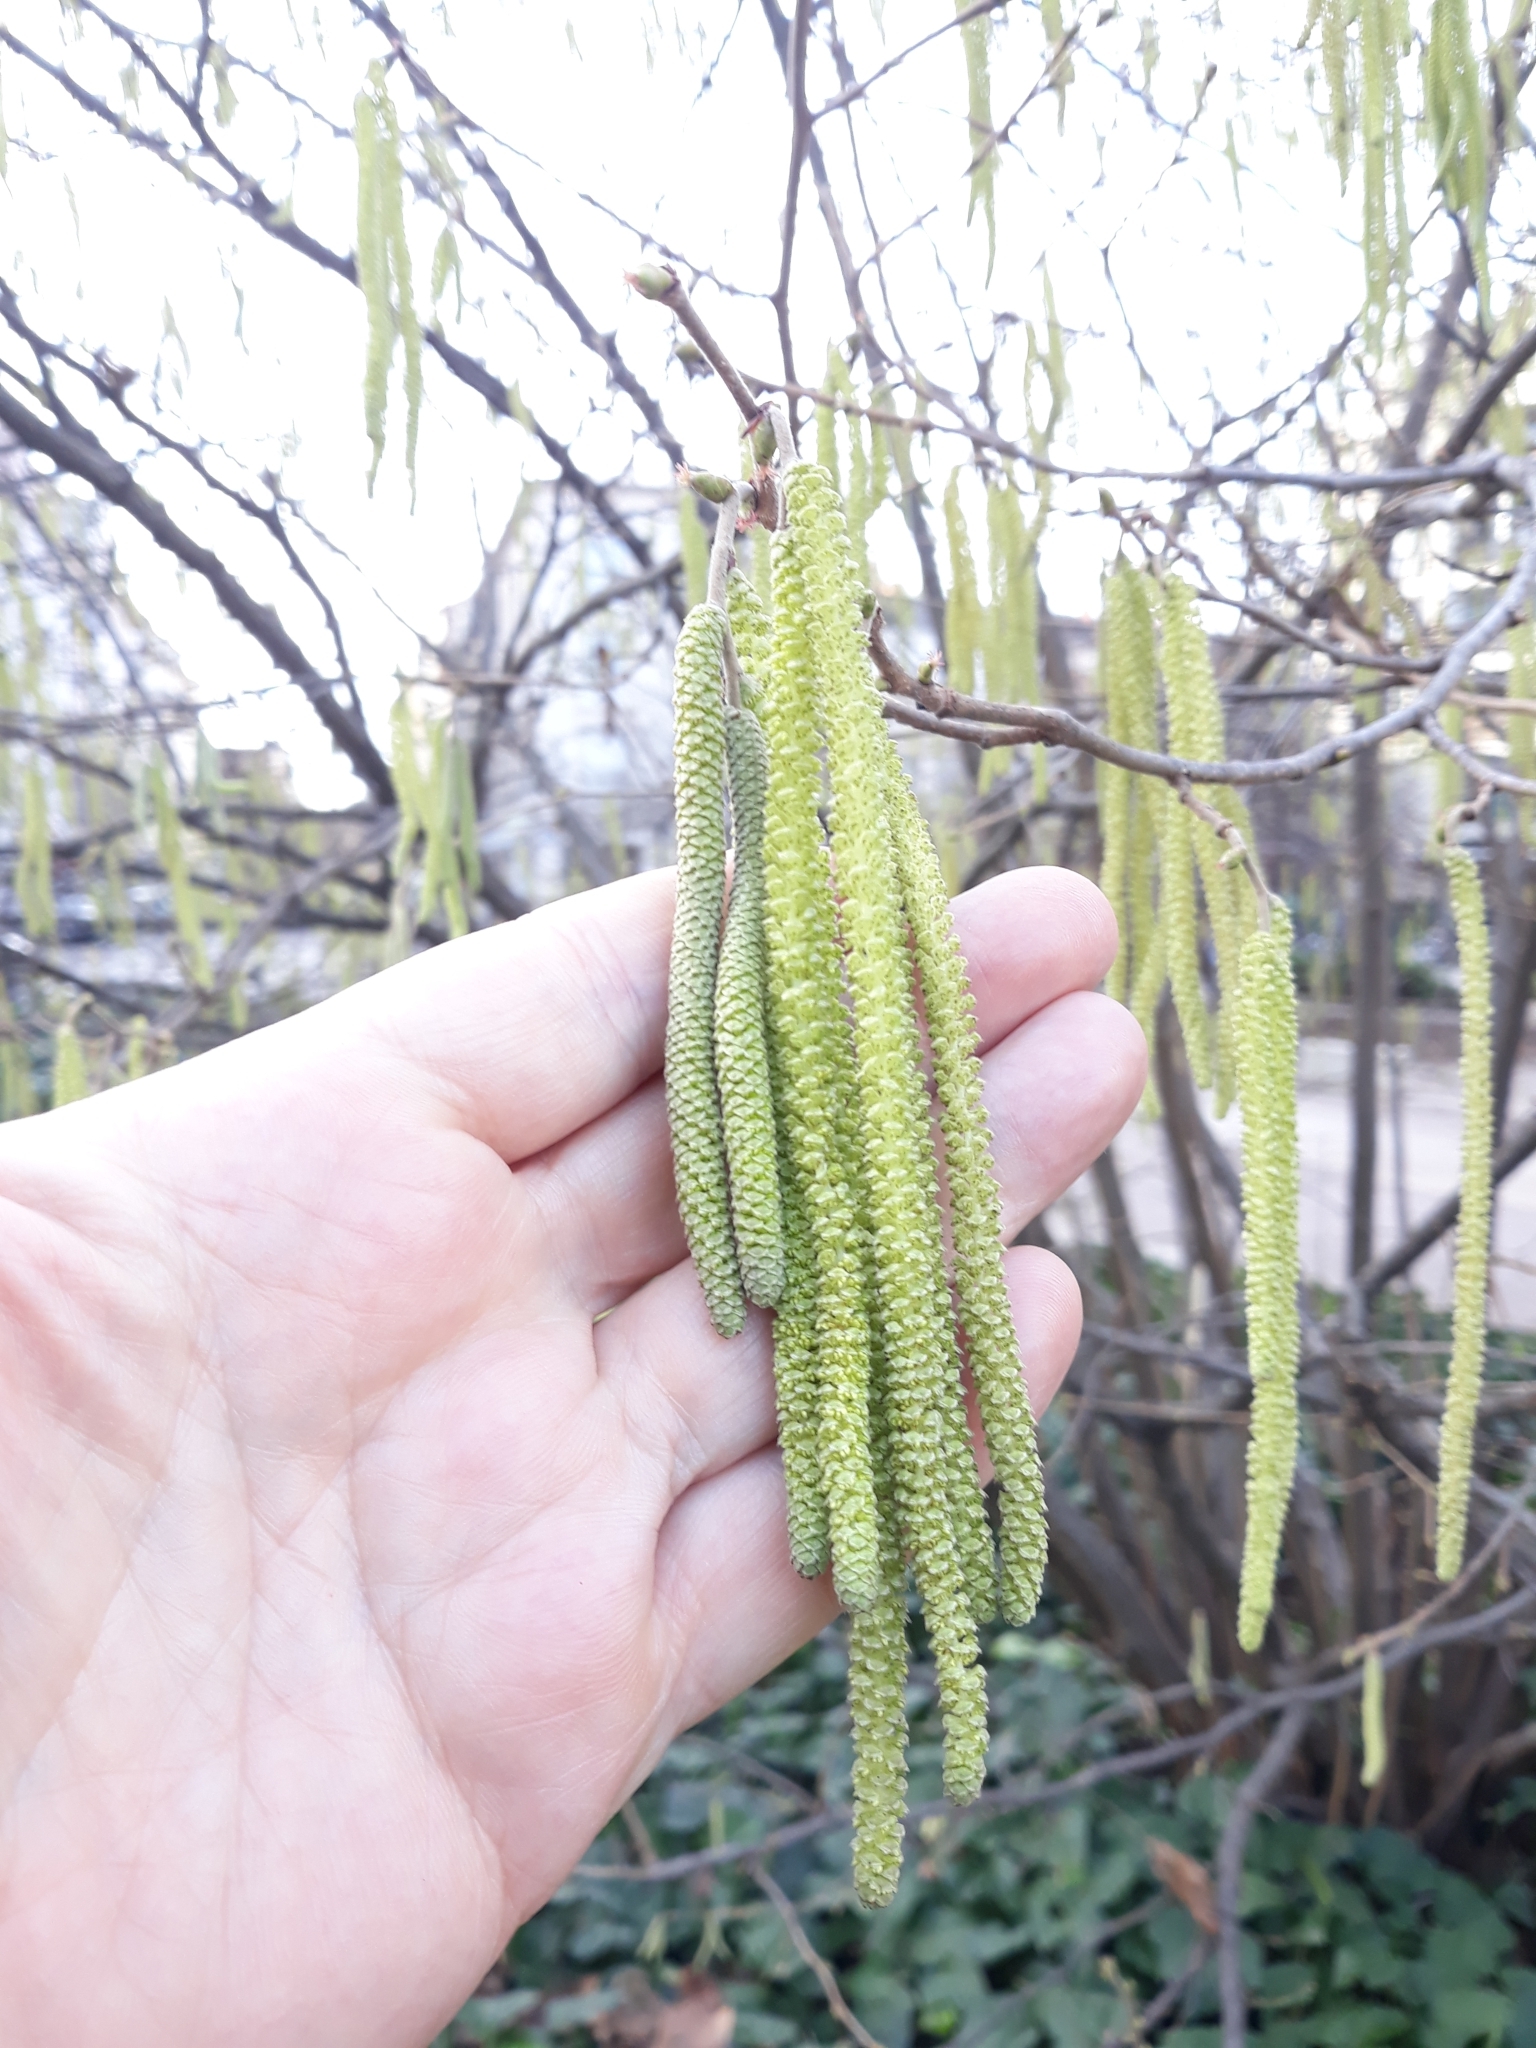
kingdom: Plantae
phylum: Tracheophyta
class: Magnoliopsida
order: Fagales
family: Betulaceae
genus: Corylus
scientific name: Corylus avellana
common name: European hazel
